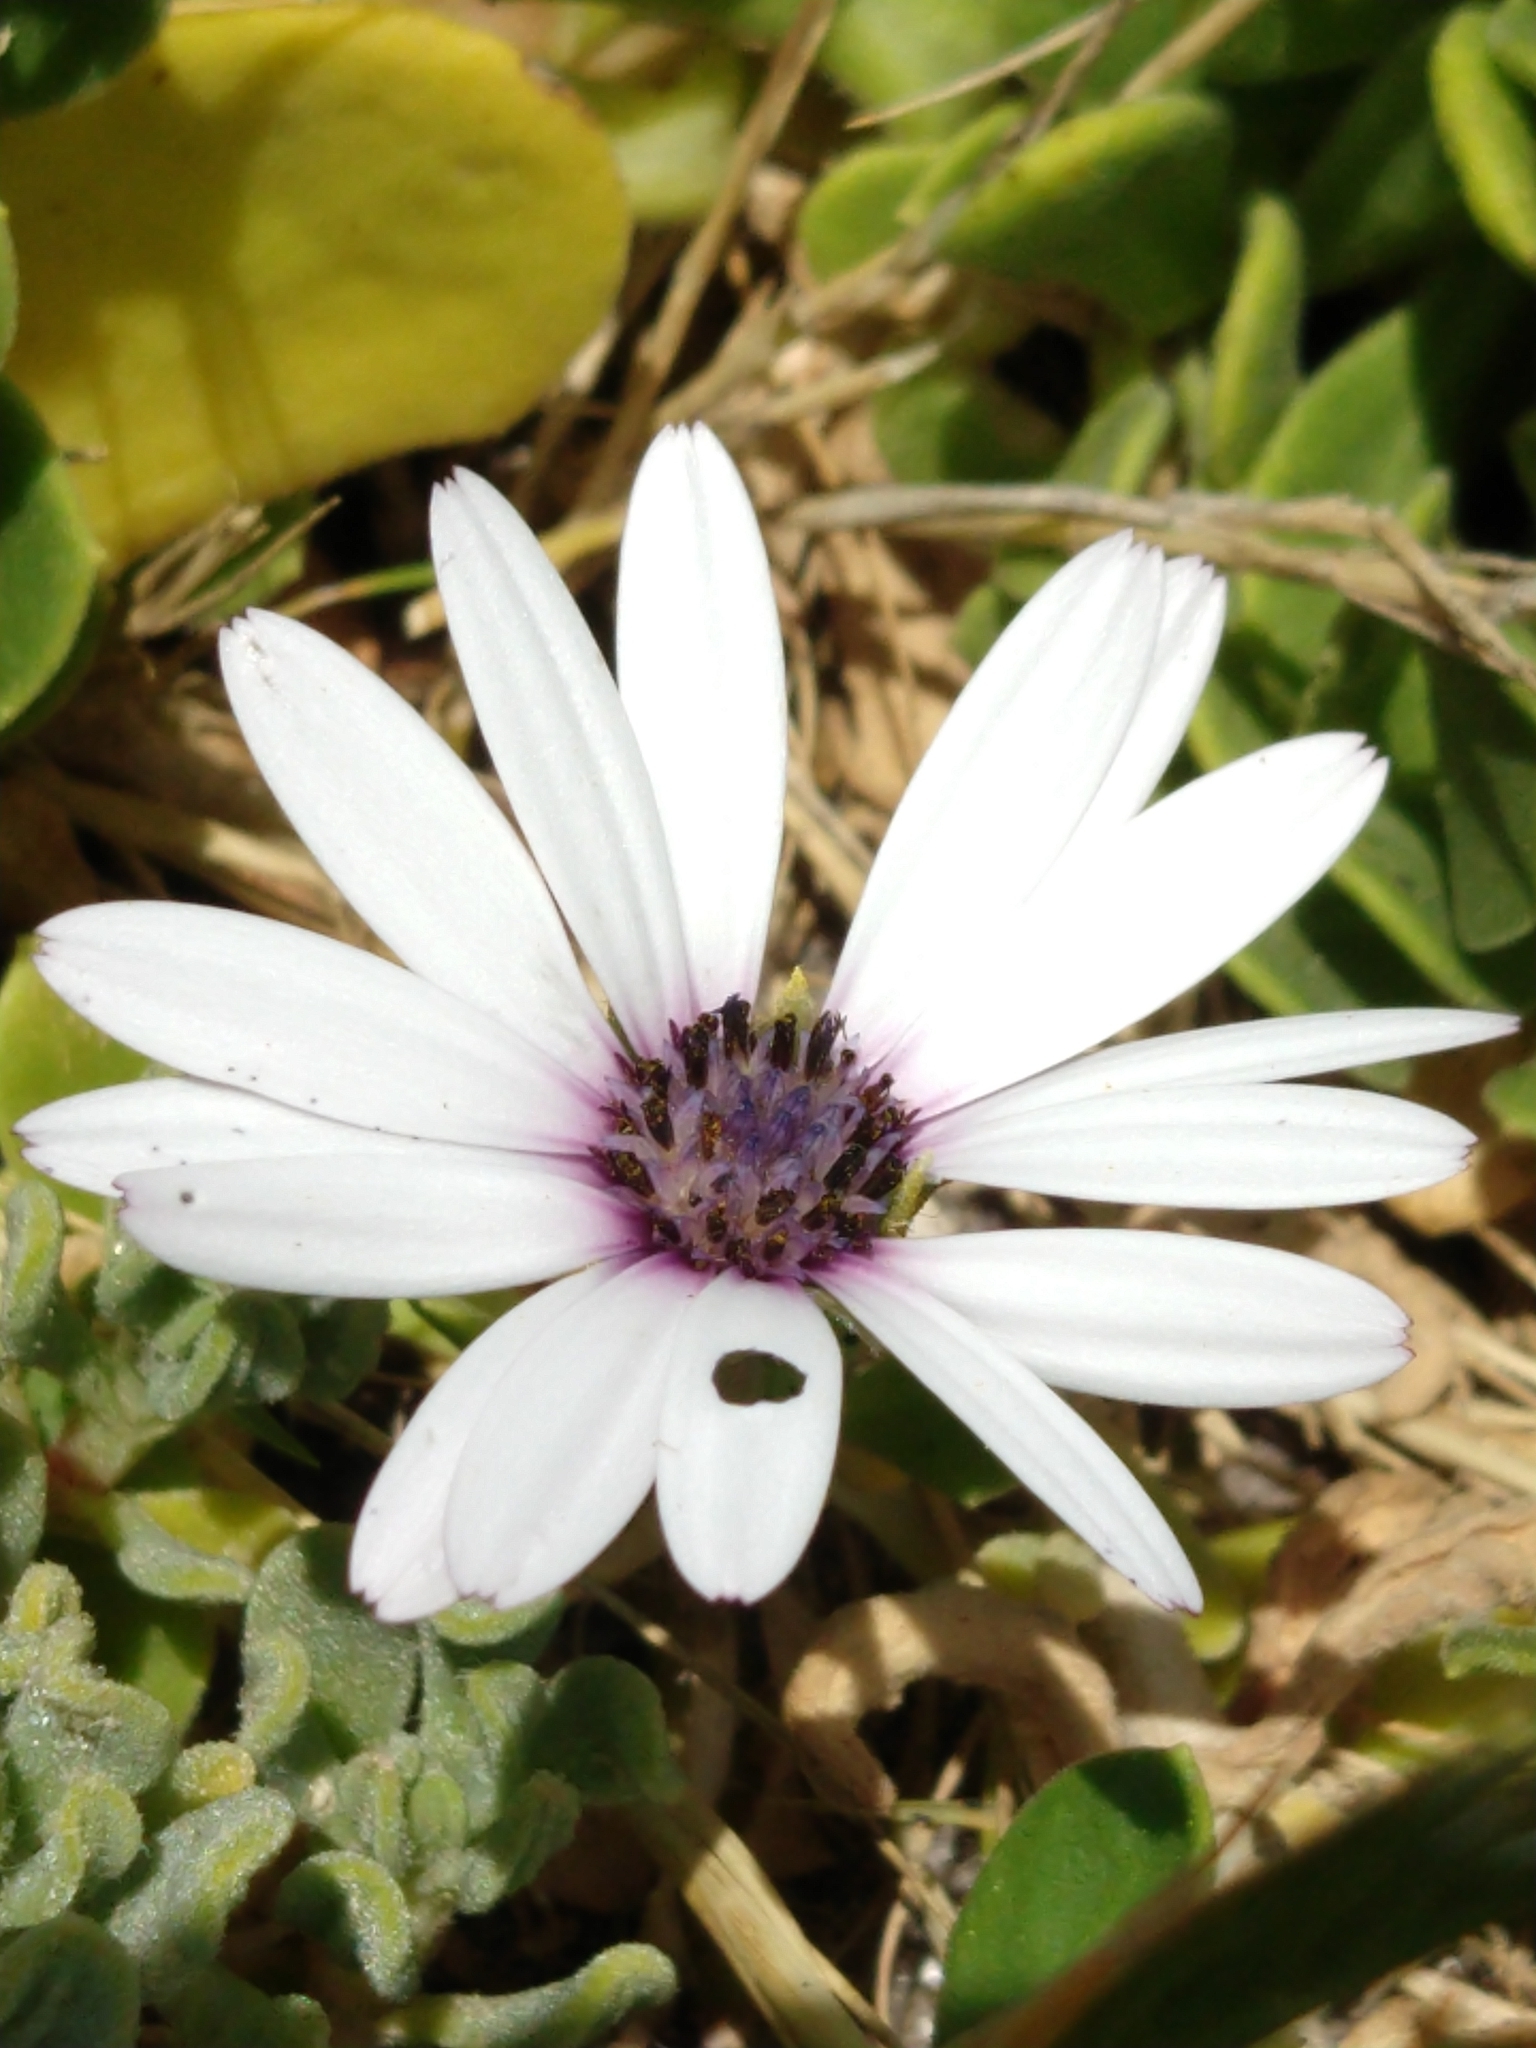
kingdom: Plantae
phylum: Tracheophyta
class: Magnoliopsida
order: Asterales
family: Asteraceae
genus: Dimorphotheca
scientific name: Dimorphotheca fruticosa
